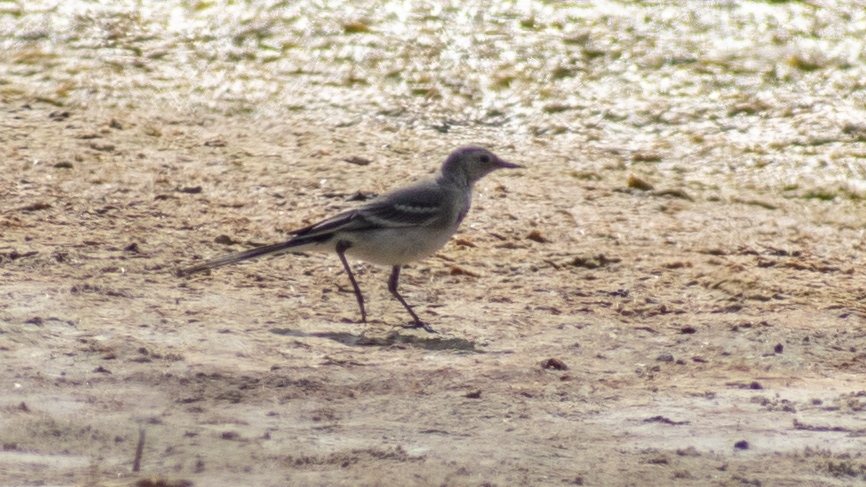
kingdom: Animalia
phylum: Chordata
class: Aves
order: Passeriformes
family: Motacillidae
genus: Motacilla
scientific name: Motacilla alba
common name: White wagtail
